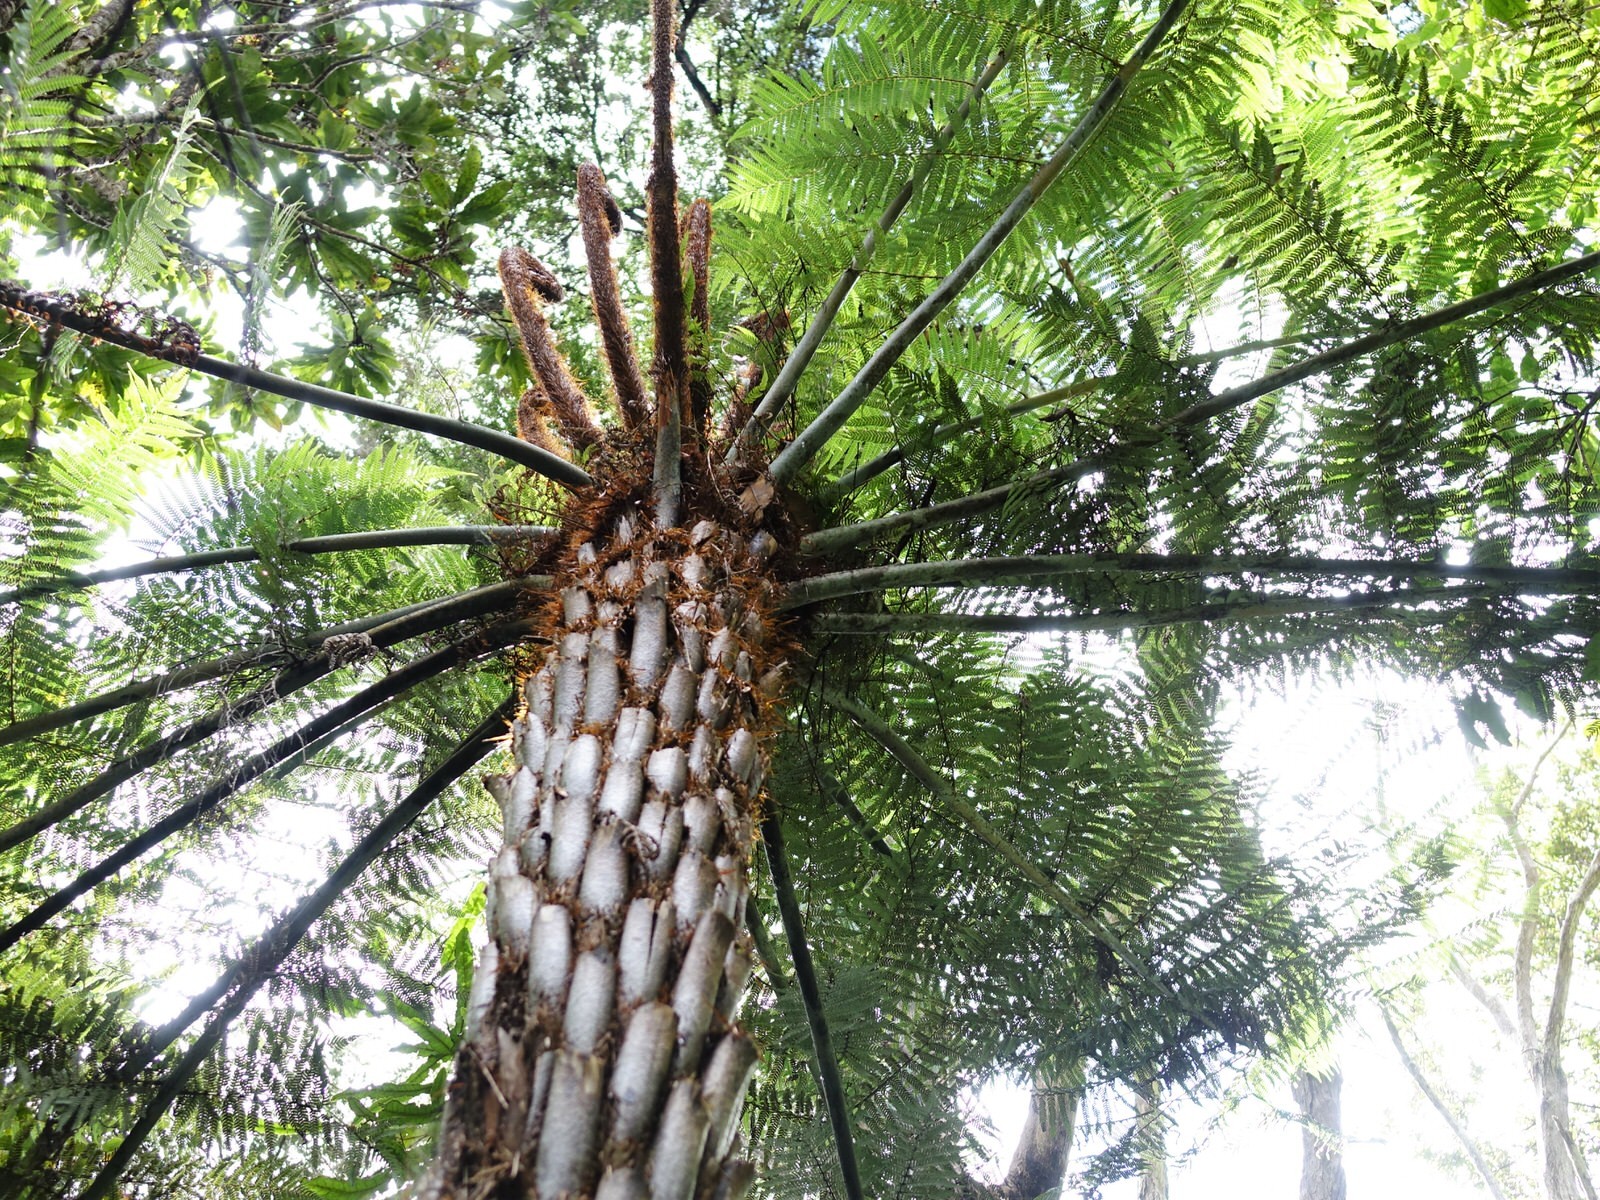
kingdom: Plantae
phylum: Tracheophyta
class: Polypodiopsida
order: Cyatheales
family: Cyatheaceae
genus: Alsophila
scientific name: Alsophila dealbata
